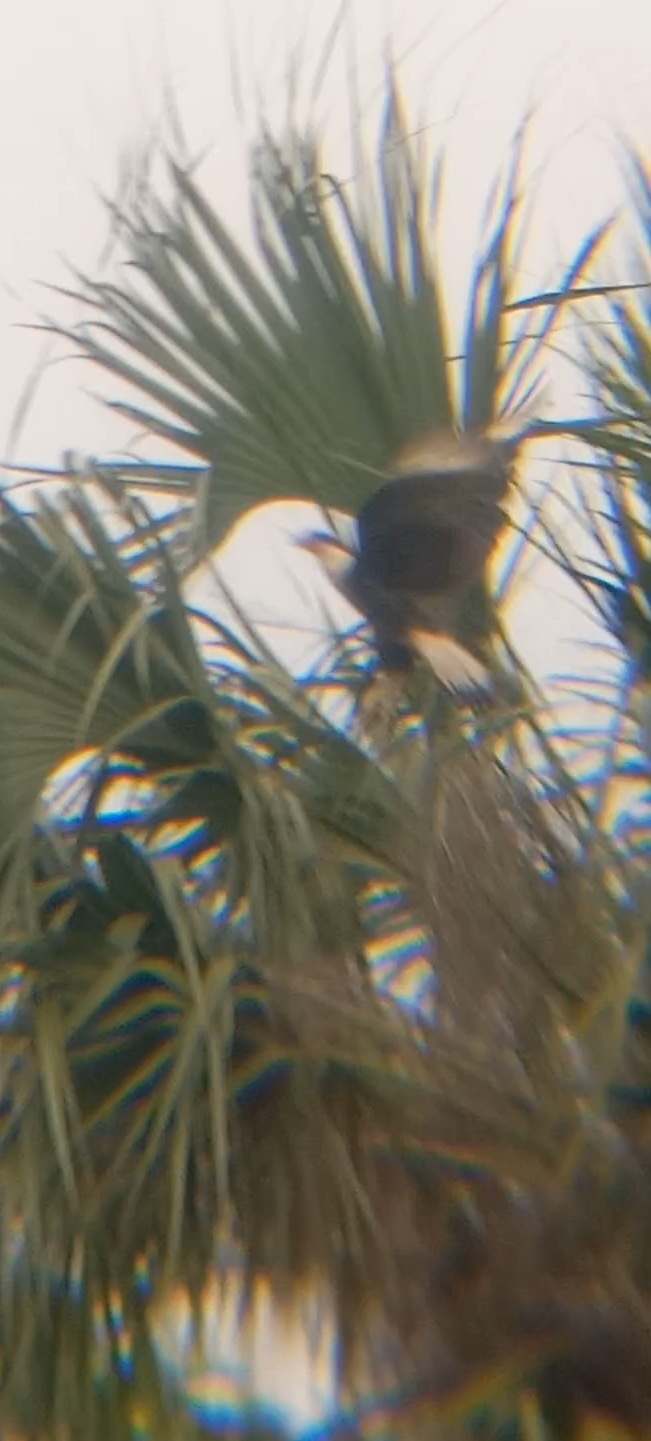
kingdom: Animalia
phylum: Chordata
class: Aves
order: Falconiformes
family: Falconidae
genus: Caracara
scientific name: Caracara plancus
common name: Southern caracara
